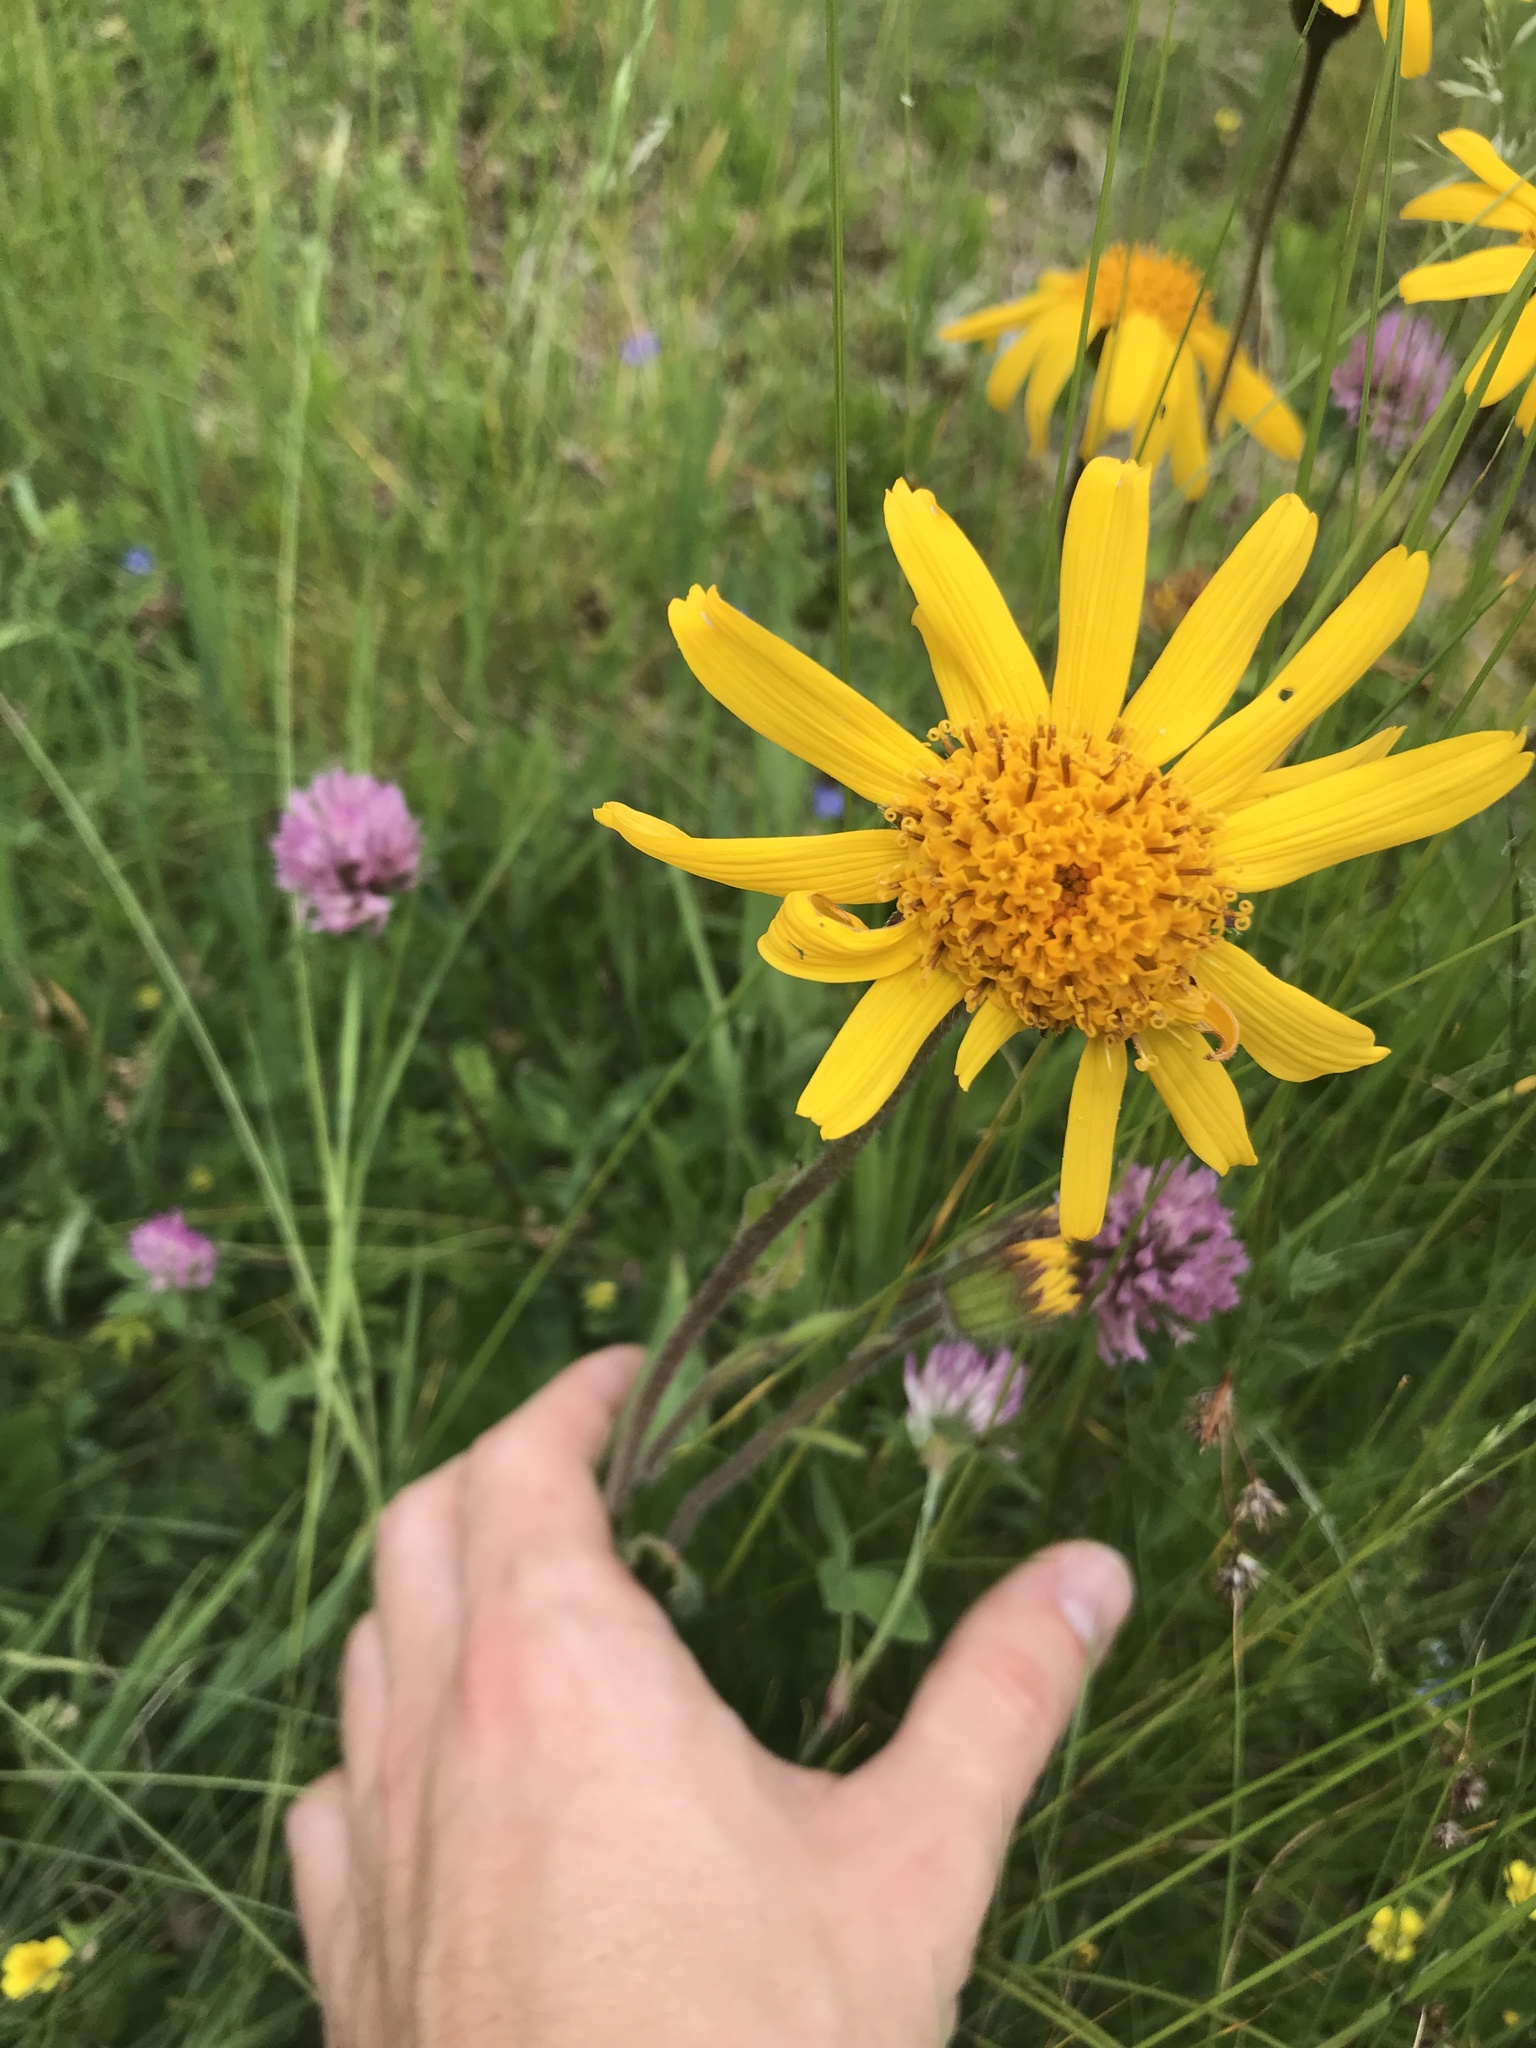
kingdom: Plantae
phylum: Tracheophyta
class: Magnoliopsida
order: Asterales
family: Asteraceae
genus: Arnica
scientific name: Arnica montana
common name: Leopard's bane
